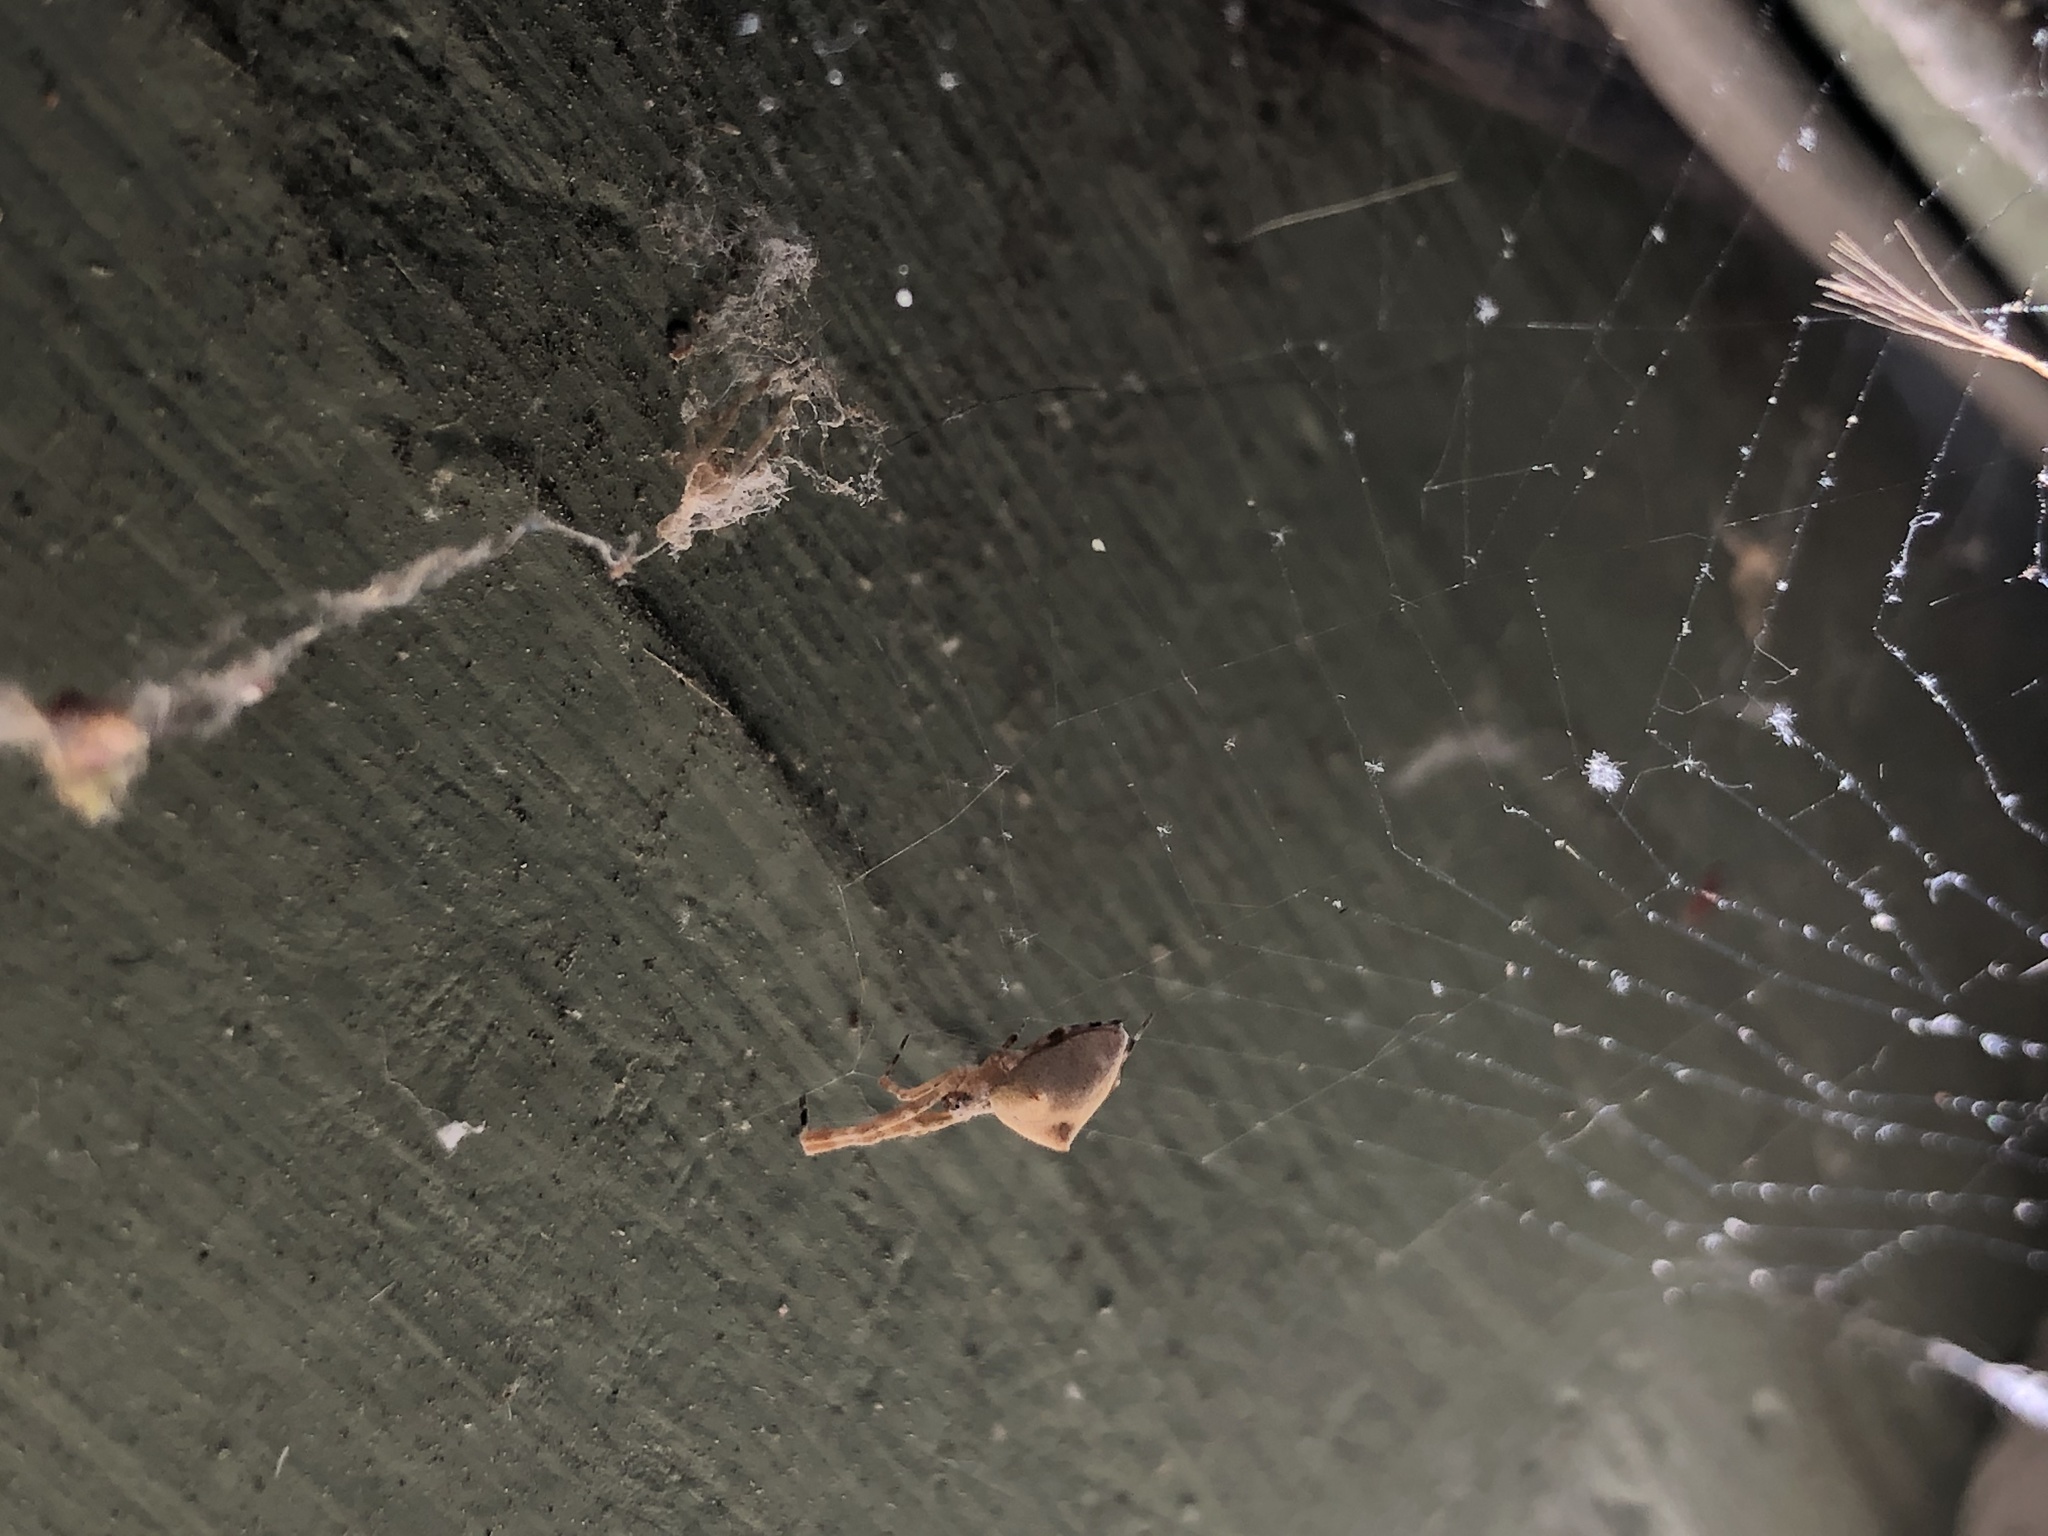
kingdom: Animalia
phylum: Arthropoda
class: Arachnida
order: Araneae
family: Uloboridae
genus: Uloborus
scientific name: Uloborus diversus
